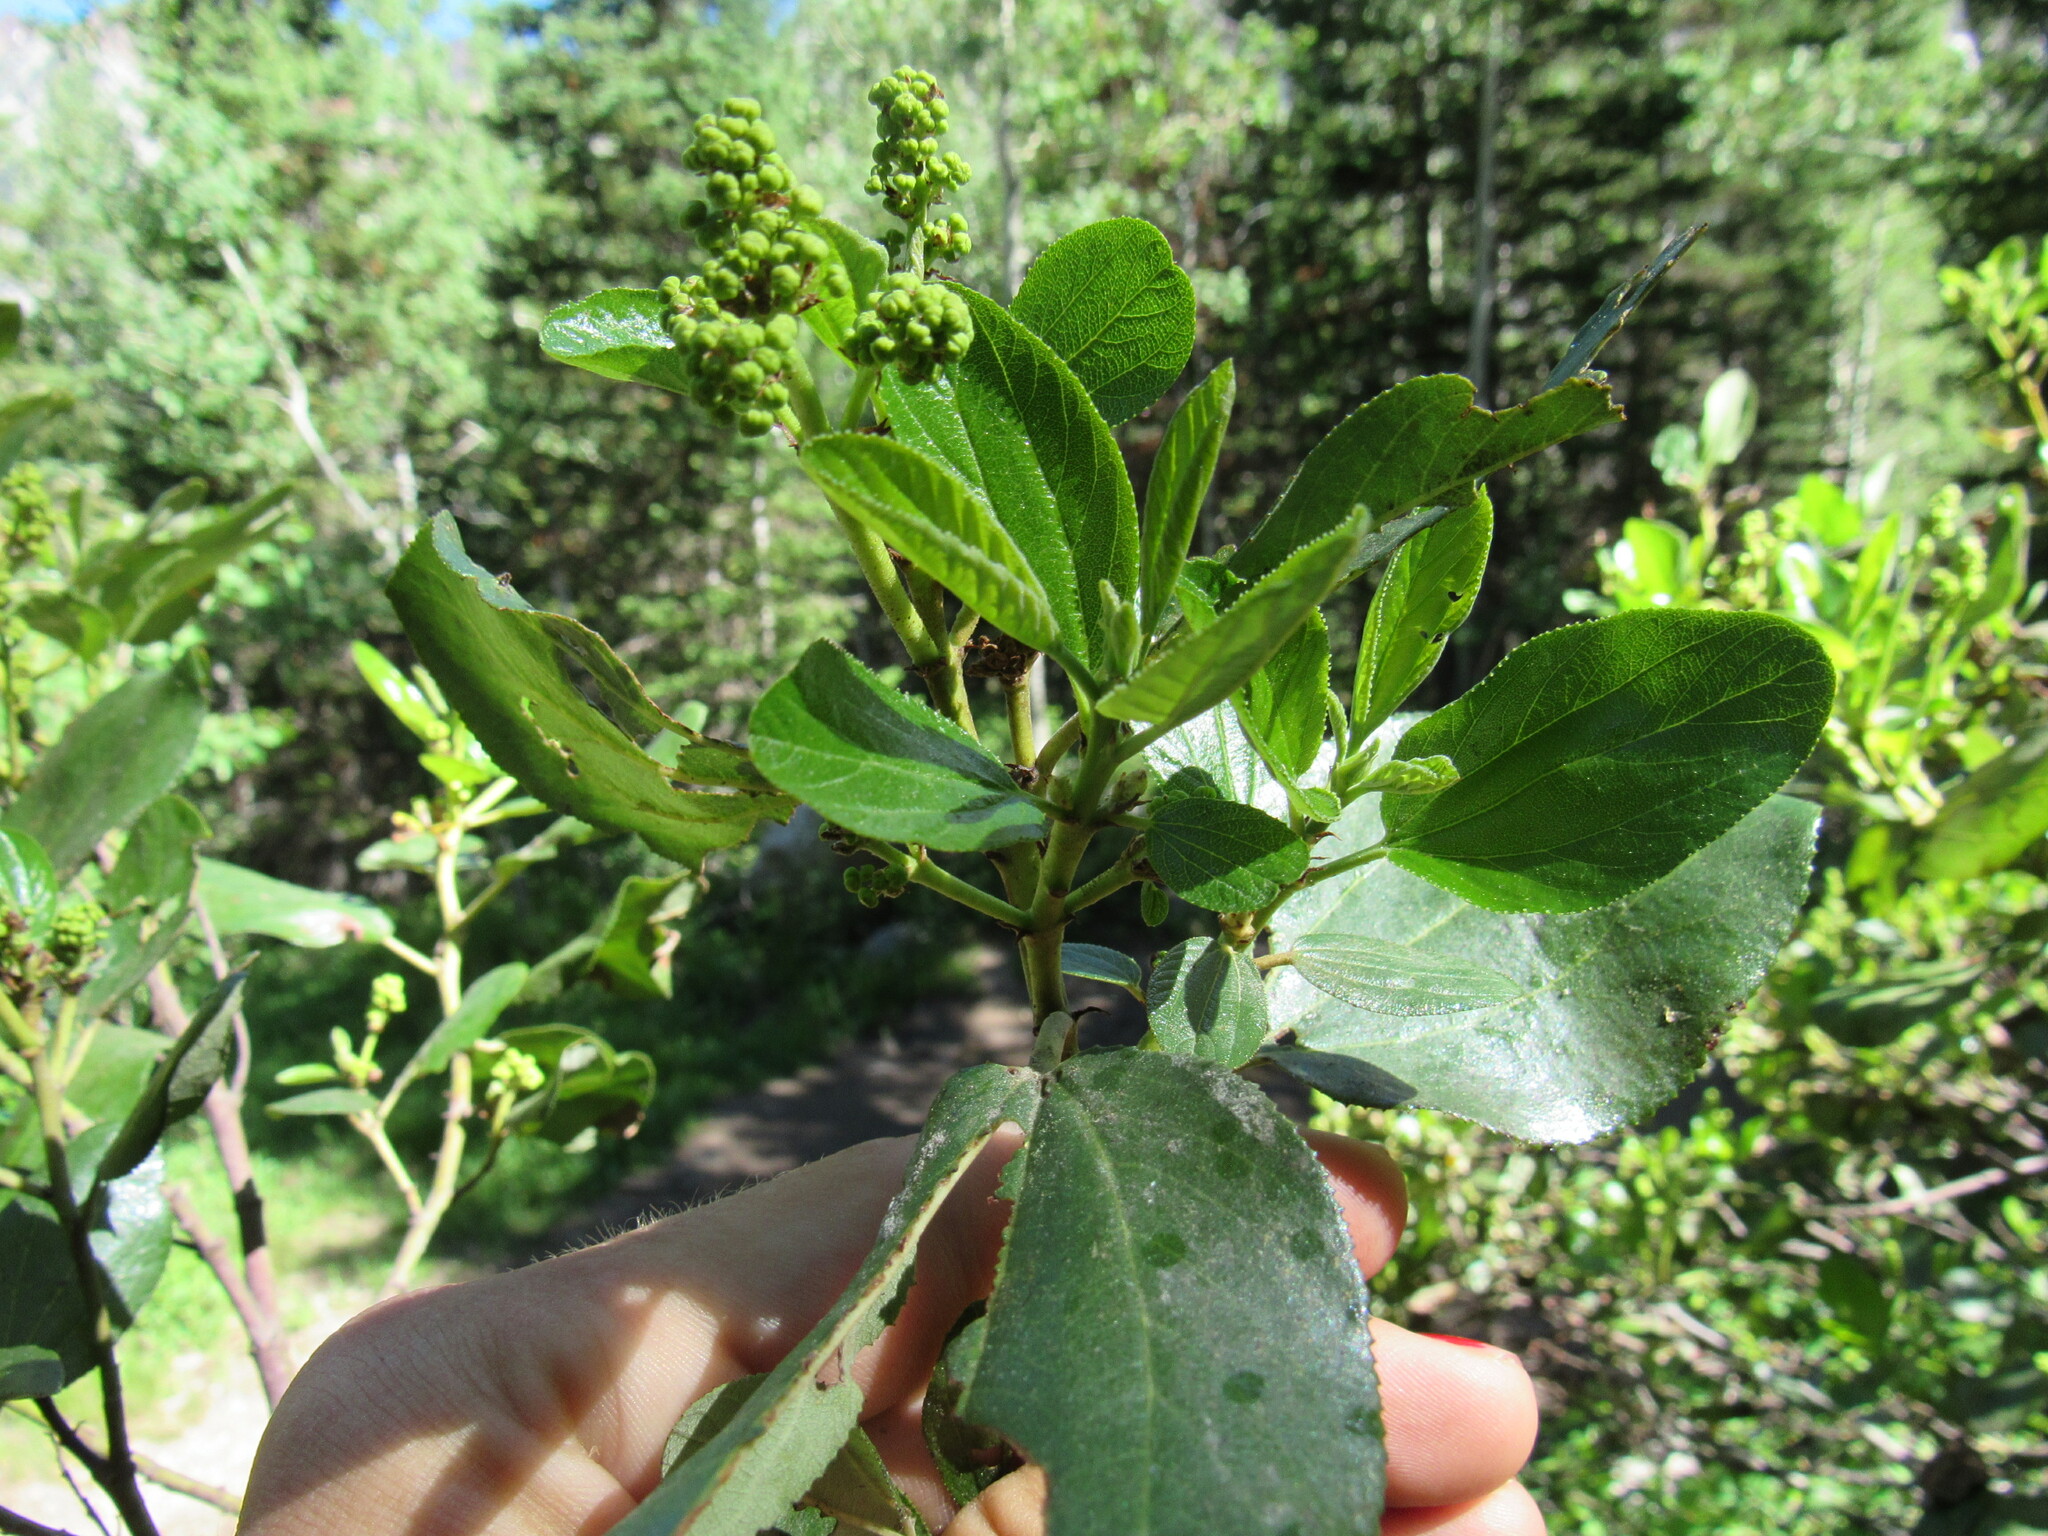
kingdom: Plantae
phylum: Tracheophyta
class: Magnoliopsida
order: Rosales
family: Rhamnaceae
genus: Ceanothus
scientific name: Ceanothus velutinus
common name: Snowbrush
